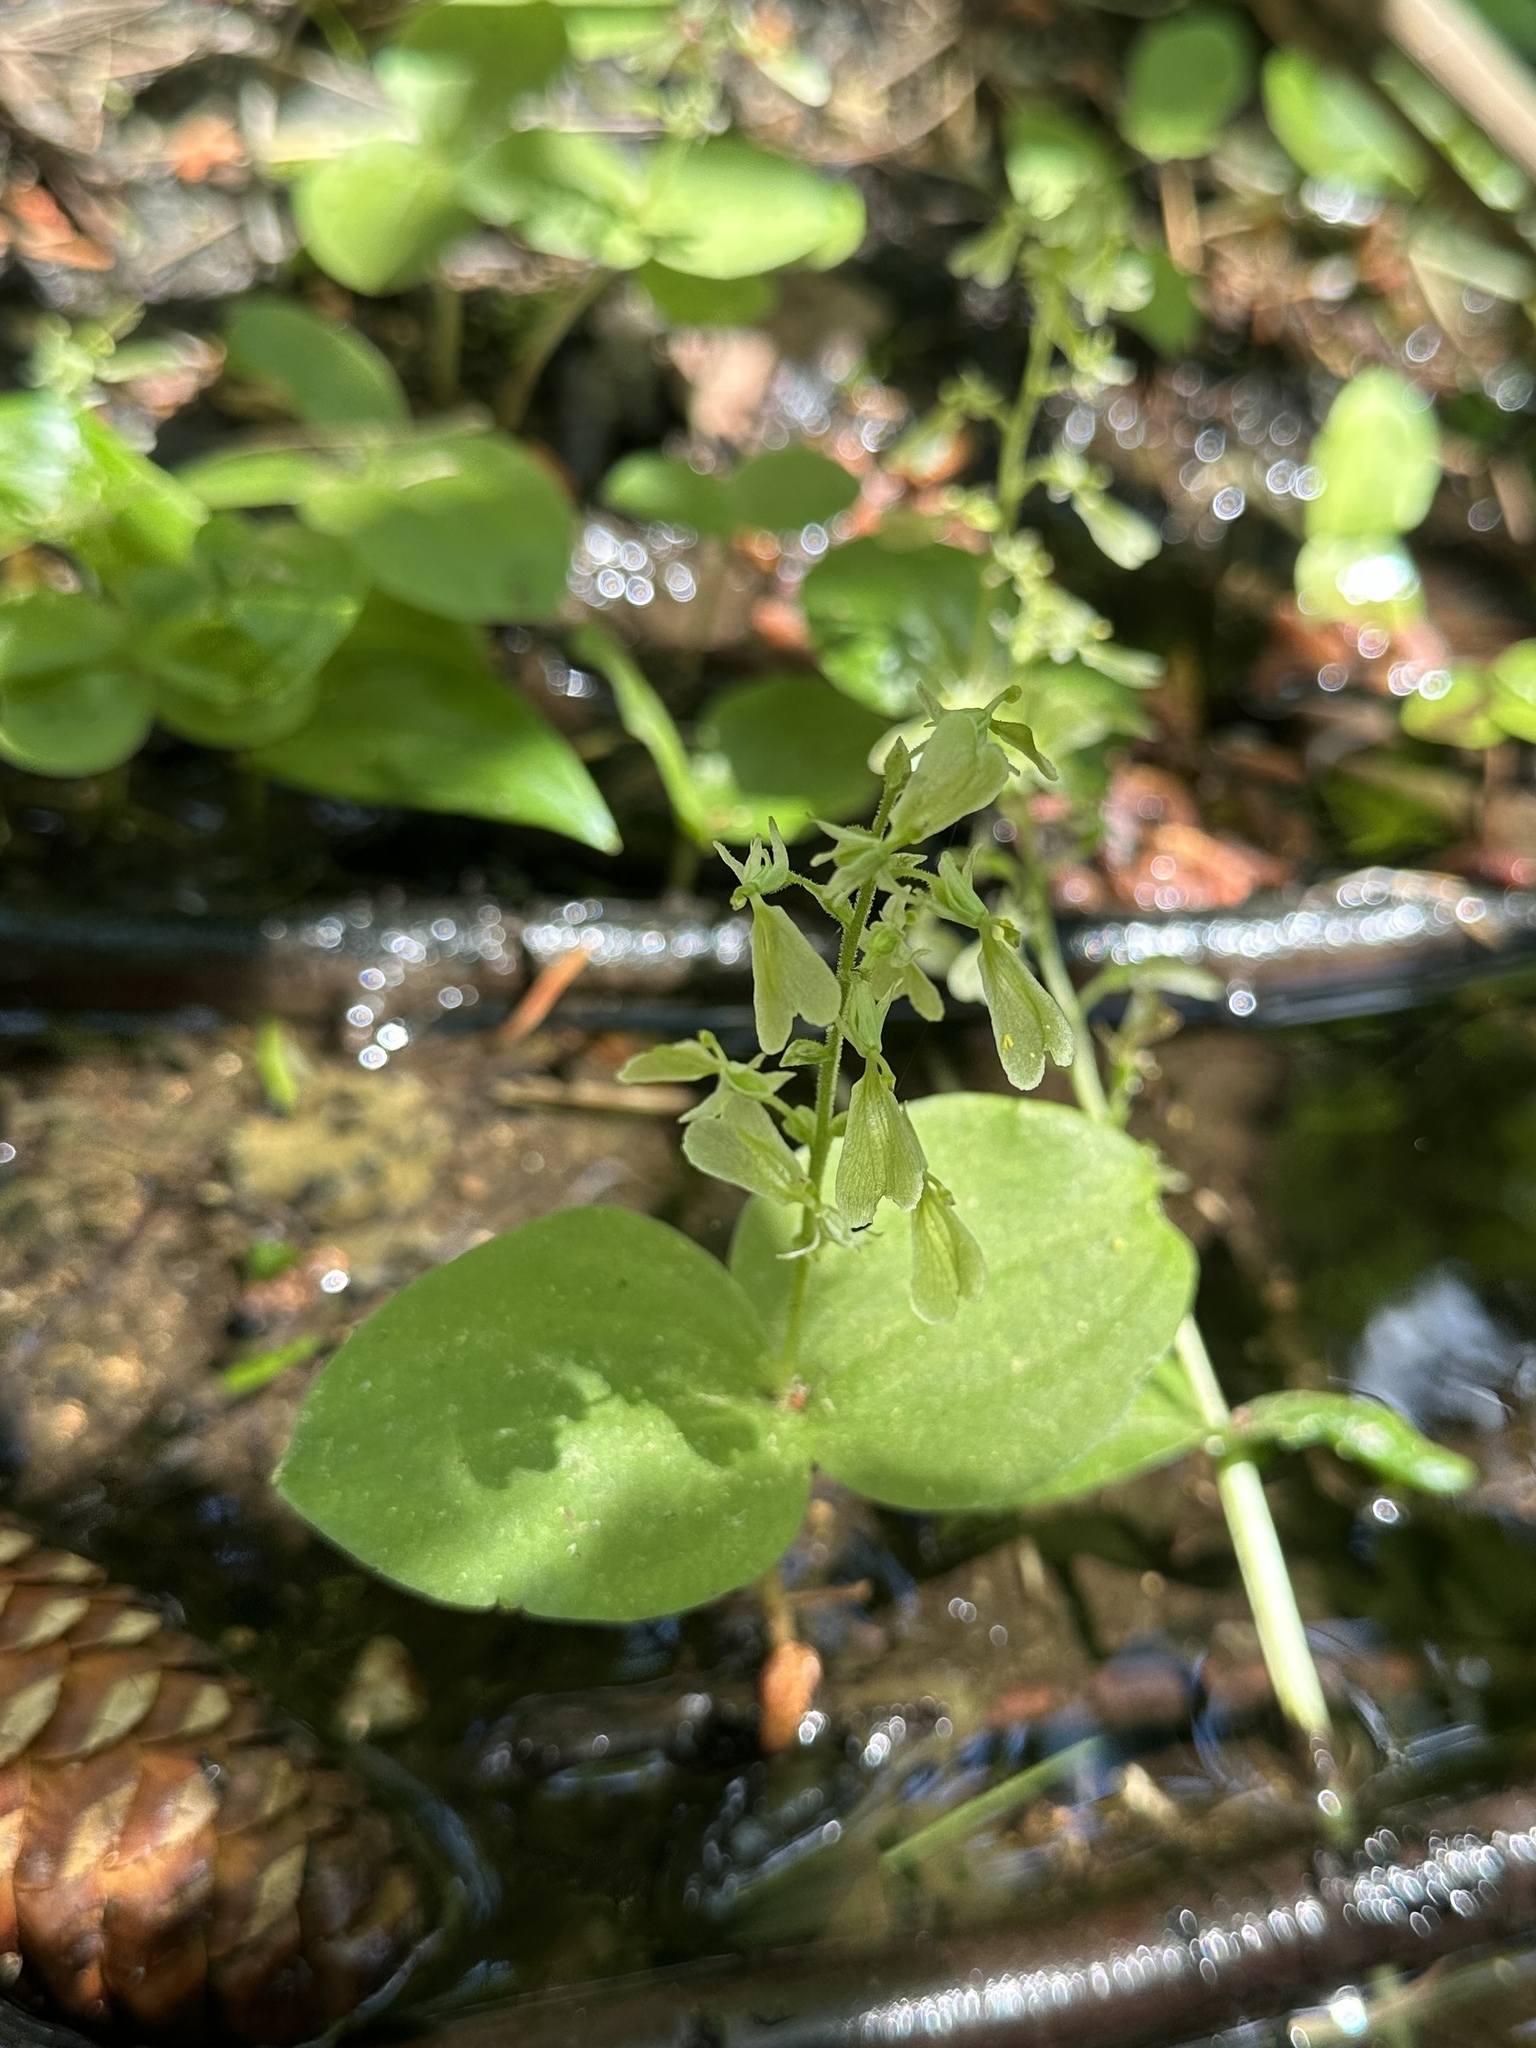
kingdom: Plantae
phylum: Tracheophyta
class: Liliopsida
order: Asparagales
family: Orchidaceae
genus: Neottia
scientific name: Neottia convallarioides
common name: Broadleaf twayblade
